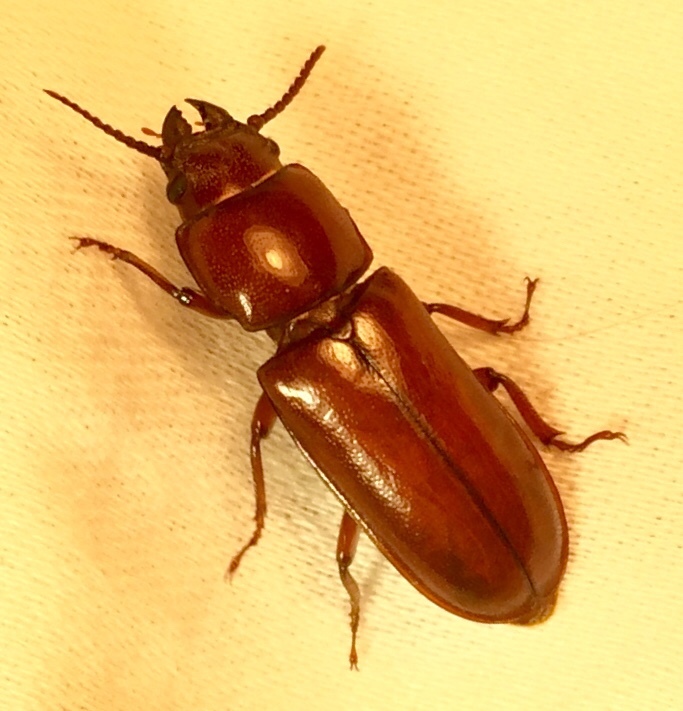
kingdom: Animalia
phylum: Arthropoda
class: Insecta
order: Coleoptera
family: Cerambycidae
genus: Neandra
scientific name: Neandra brunnea
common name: Pole borer
